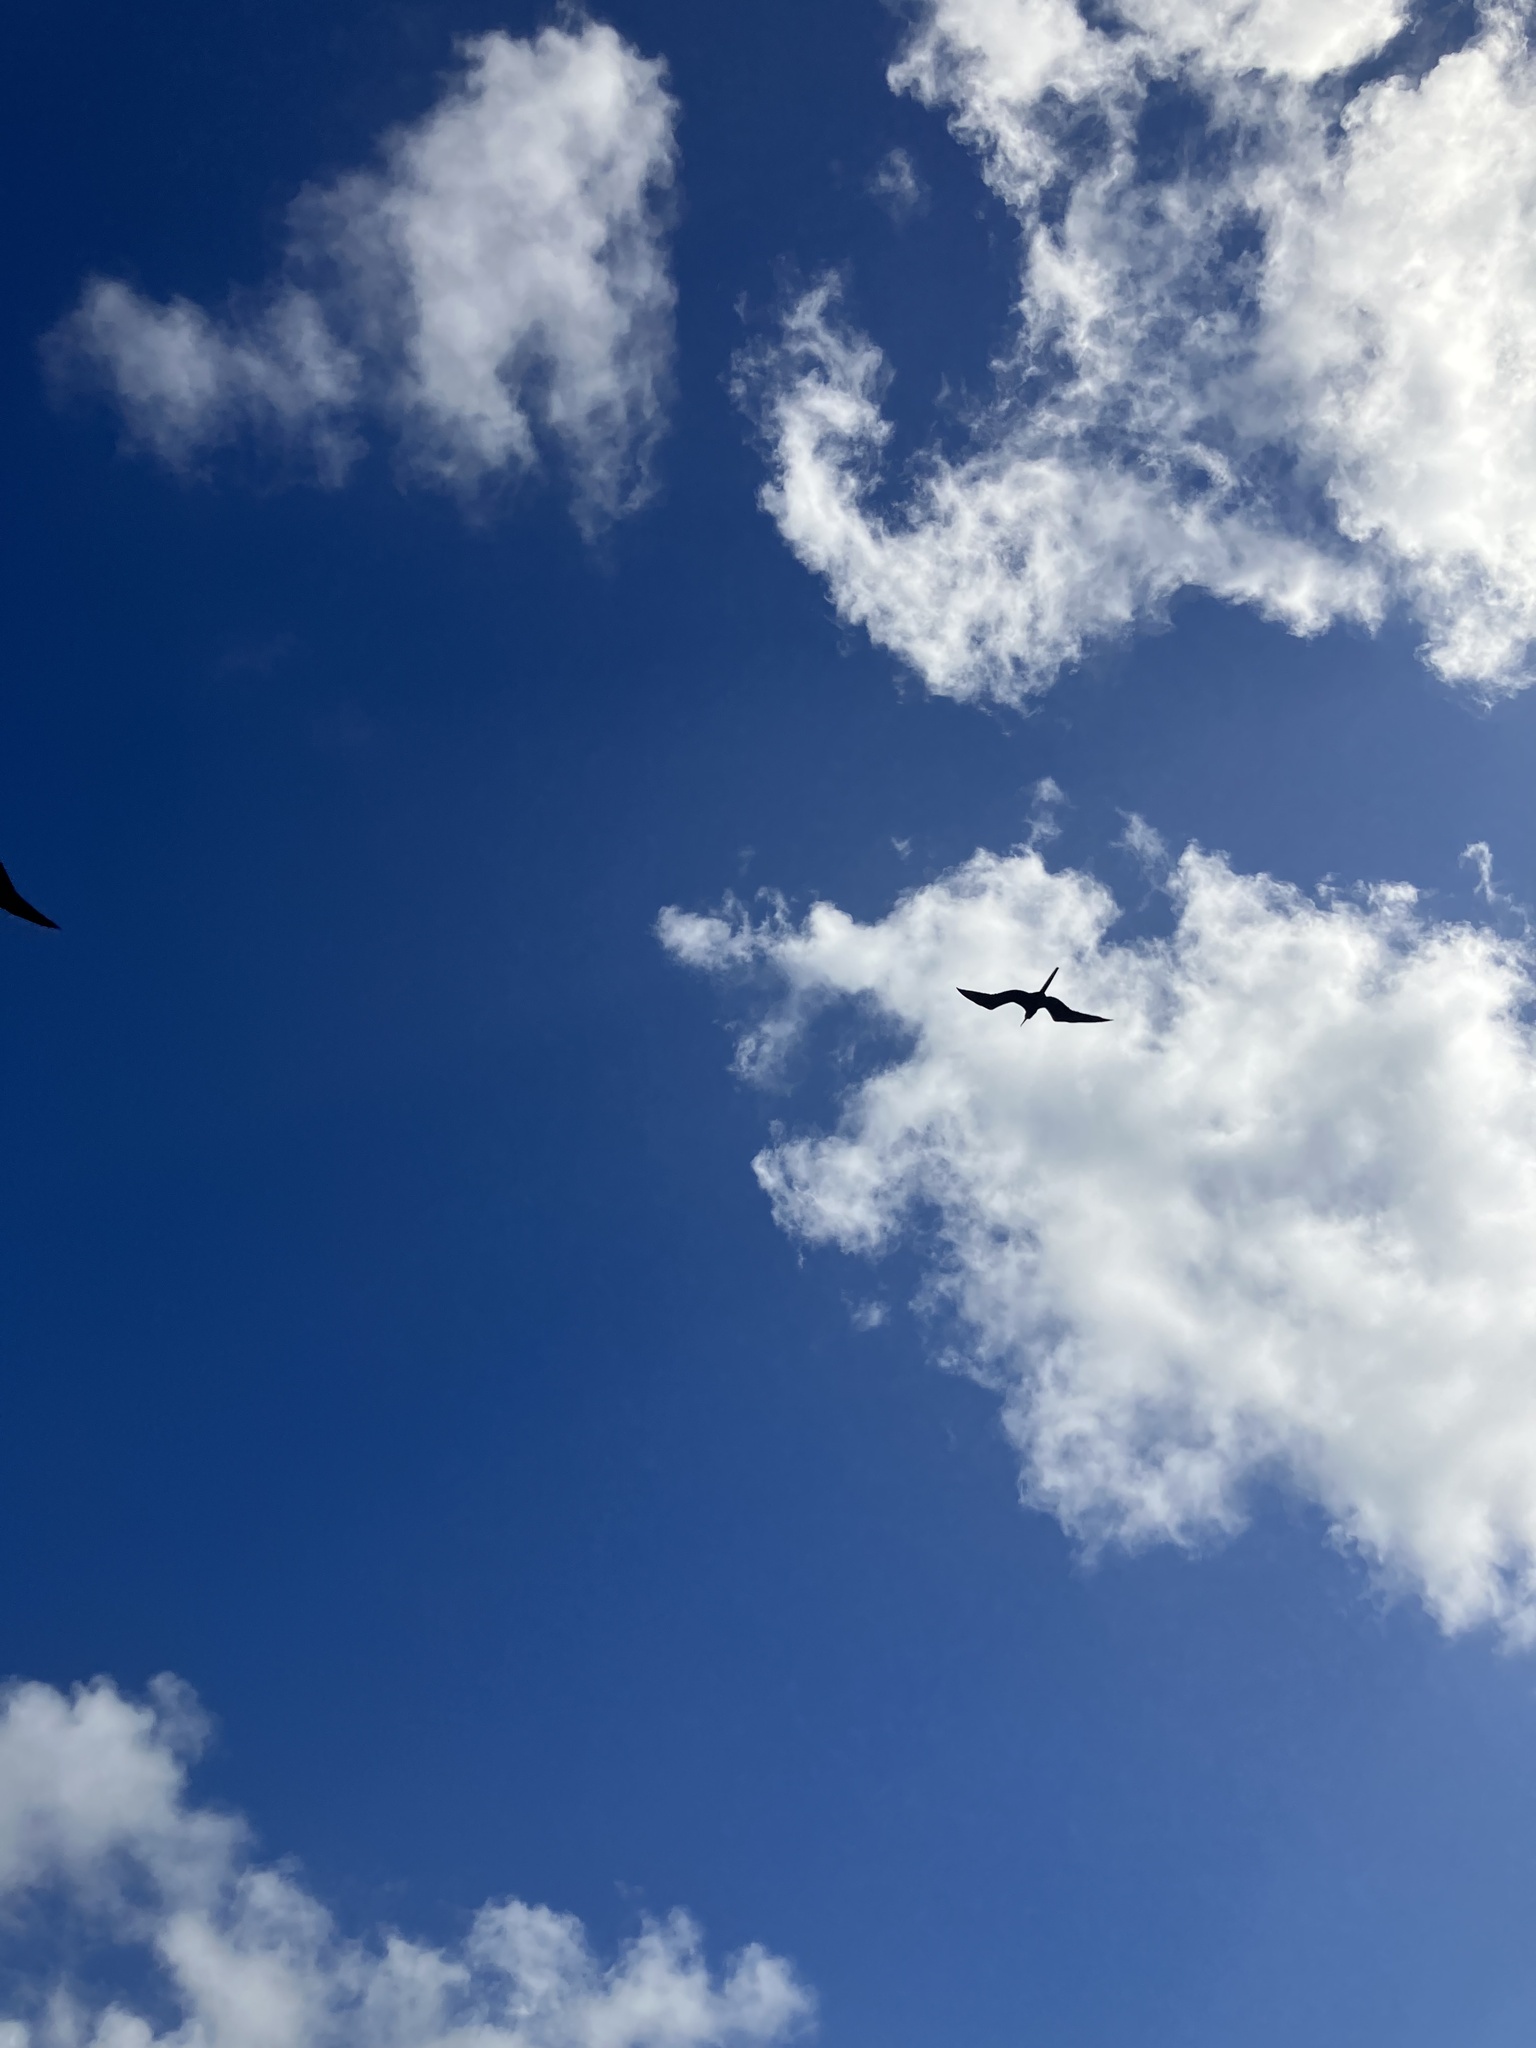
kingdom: Animalia
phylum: Chordata
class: Aves
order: Suliformes
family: Fregatidae
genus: Fregata
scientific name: Fregata magnificens
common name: Magnificent frigatebird
